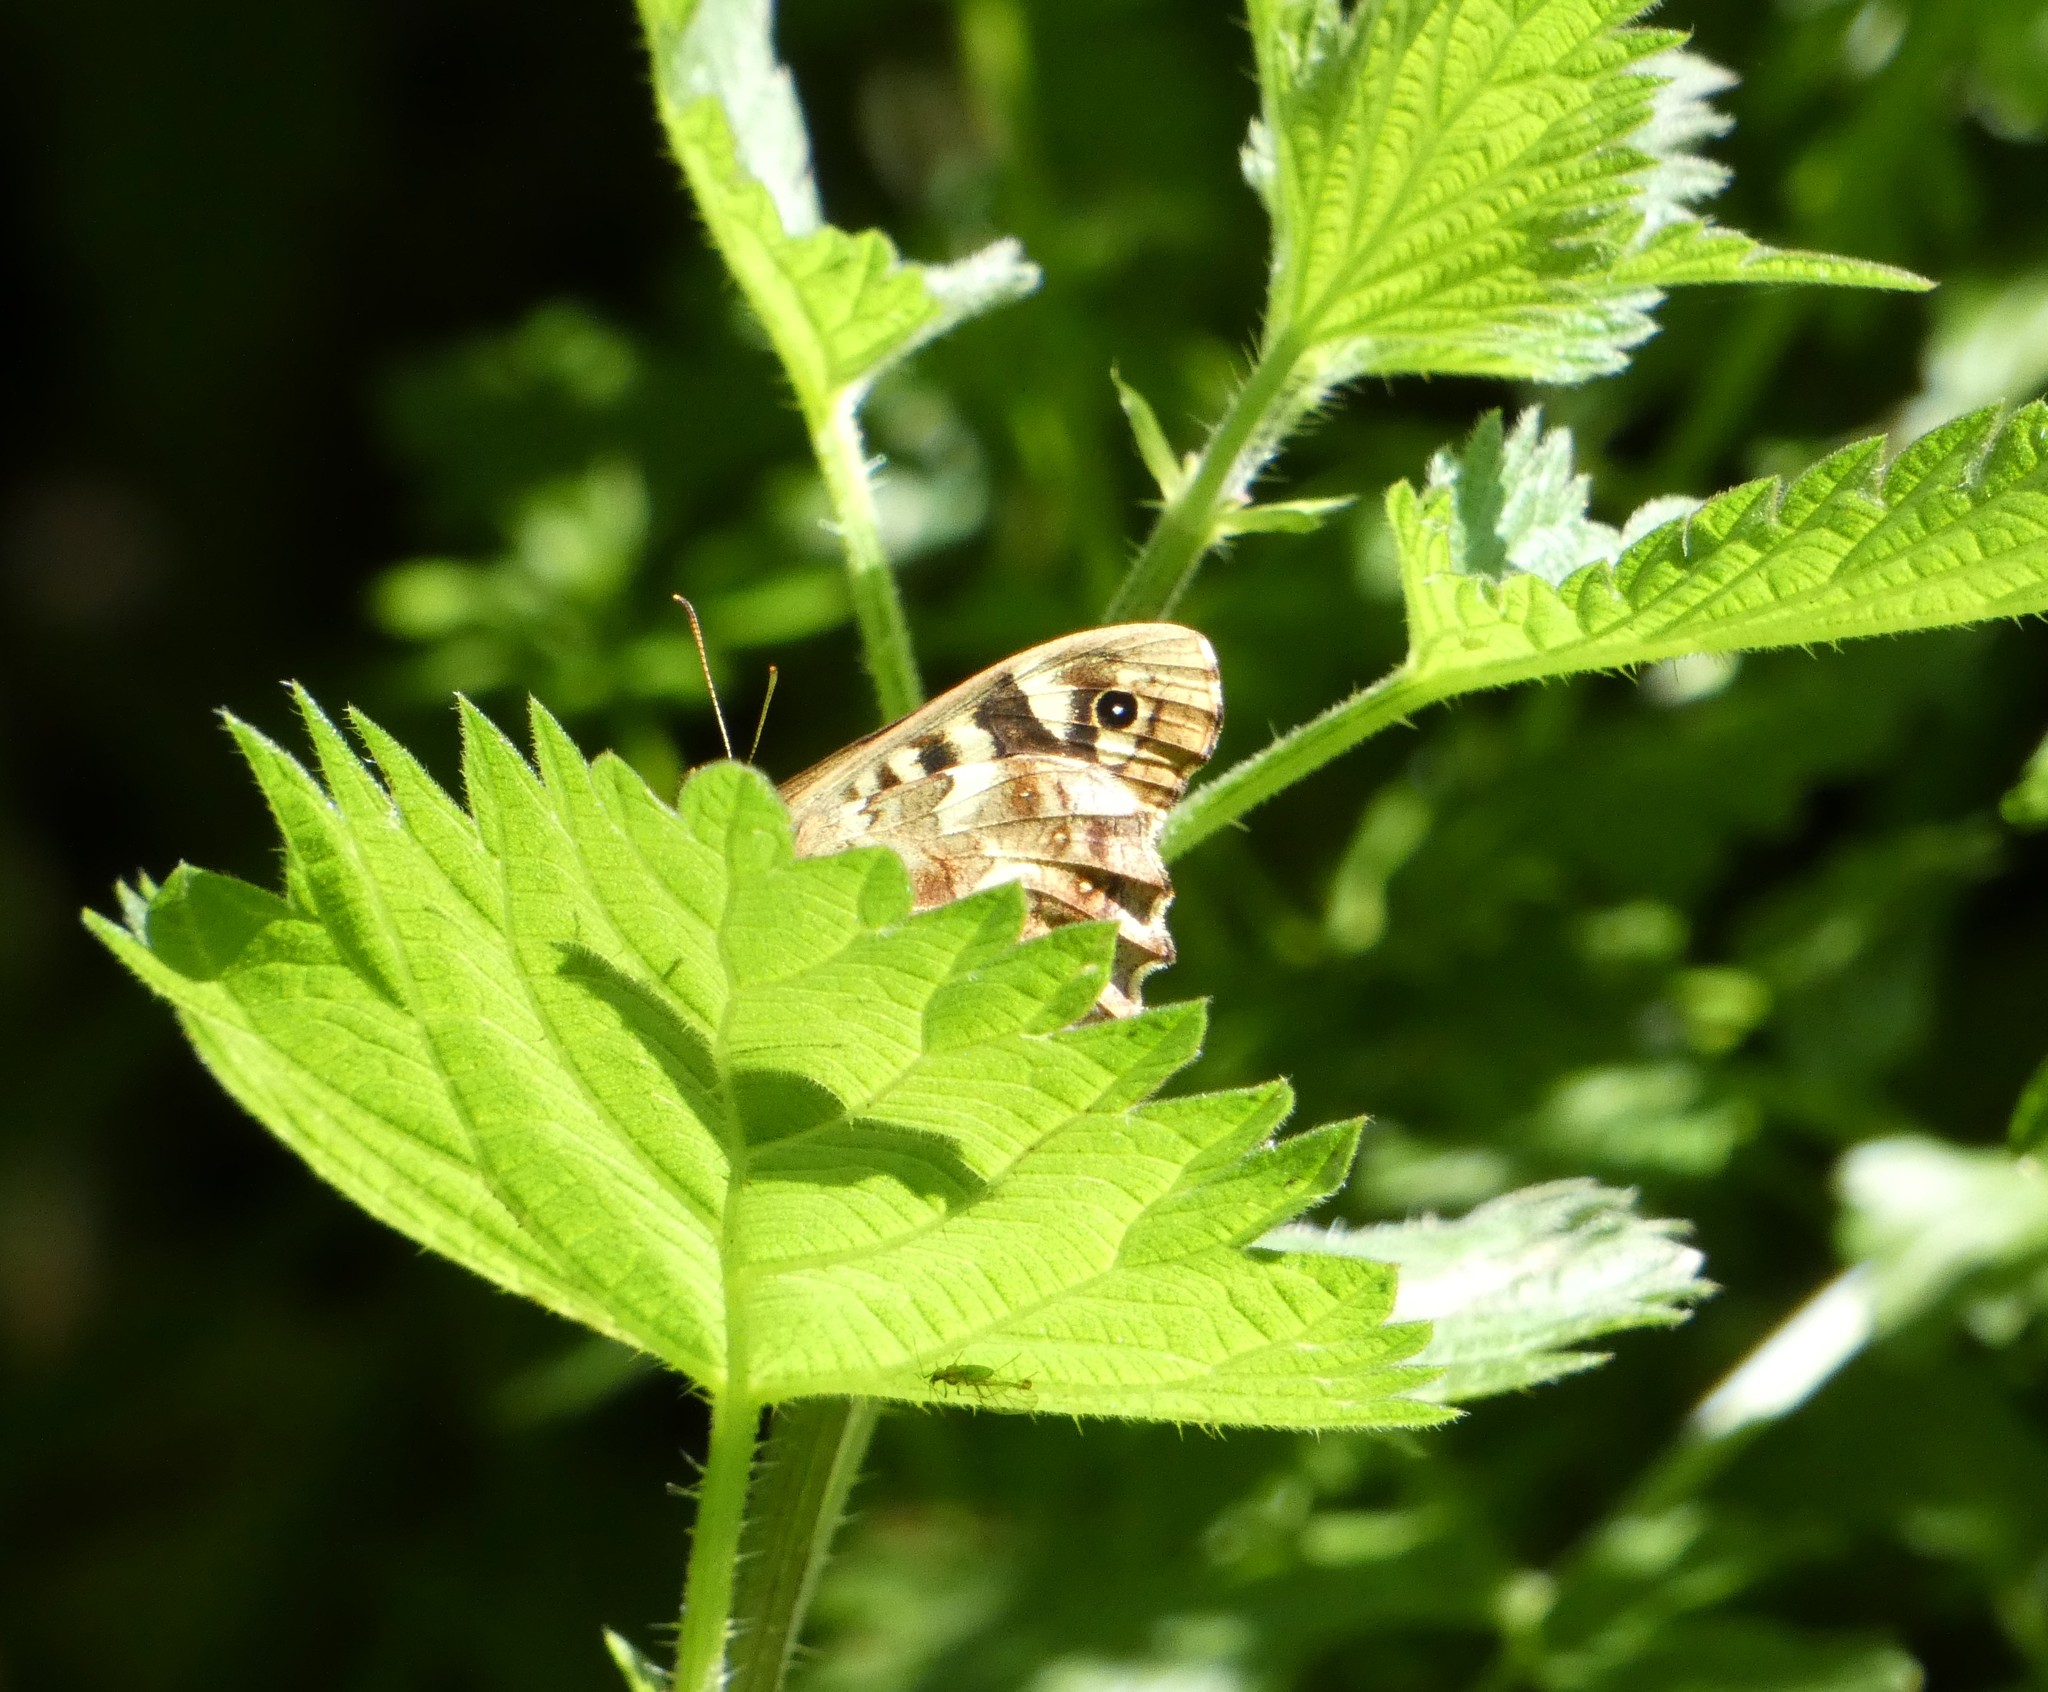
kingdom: Animalia
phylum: Arthropoda
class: Insecta
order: Lepidoptera
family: Nymphalidae
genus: Pararge
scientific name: Pararge aegeria
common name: Speckled wood
